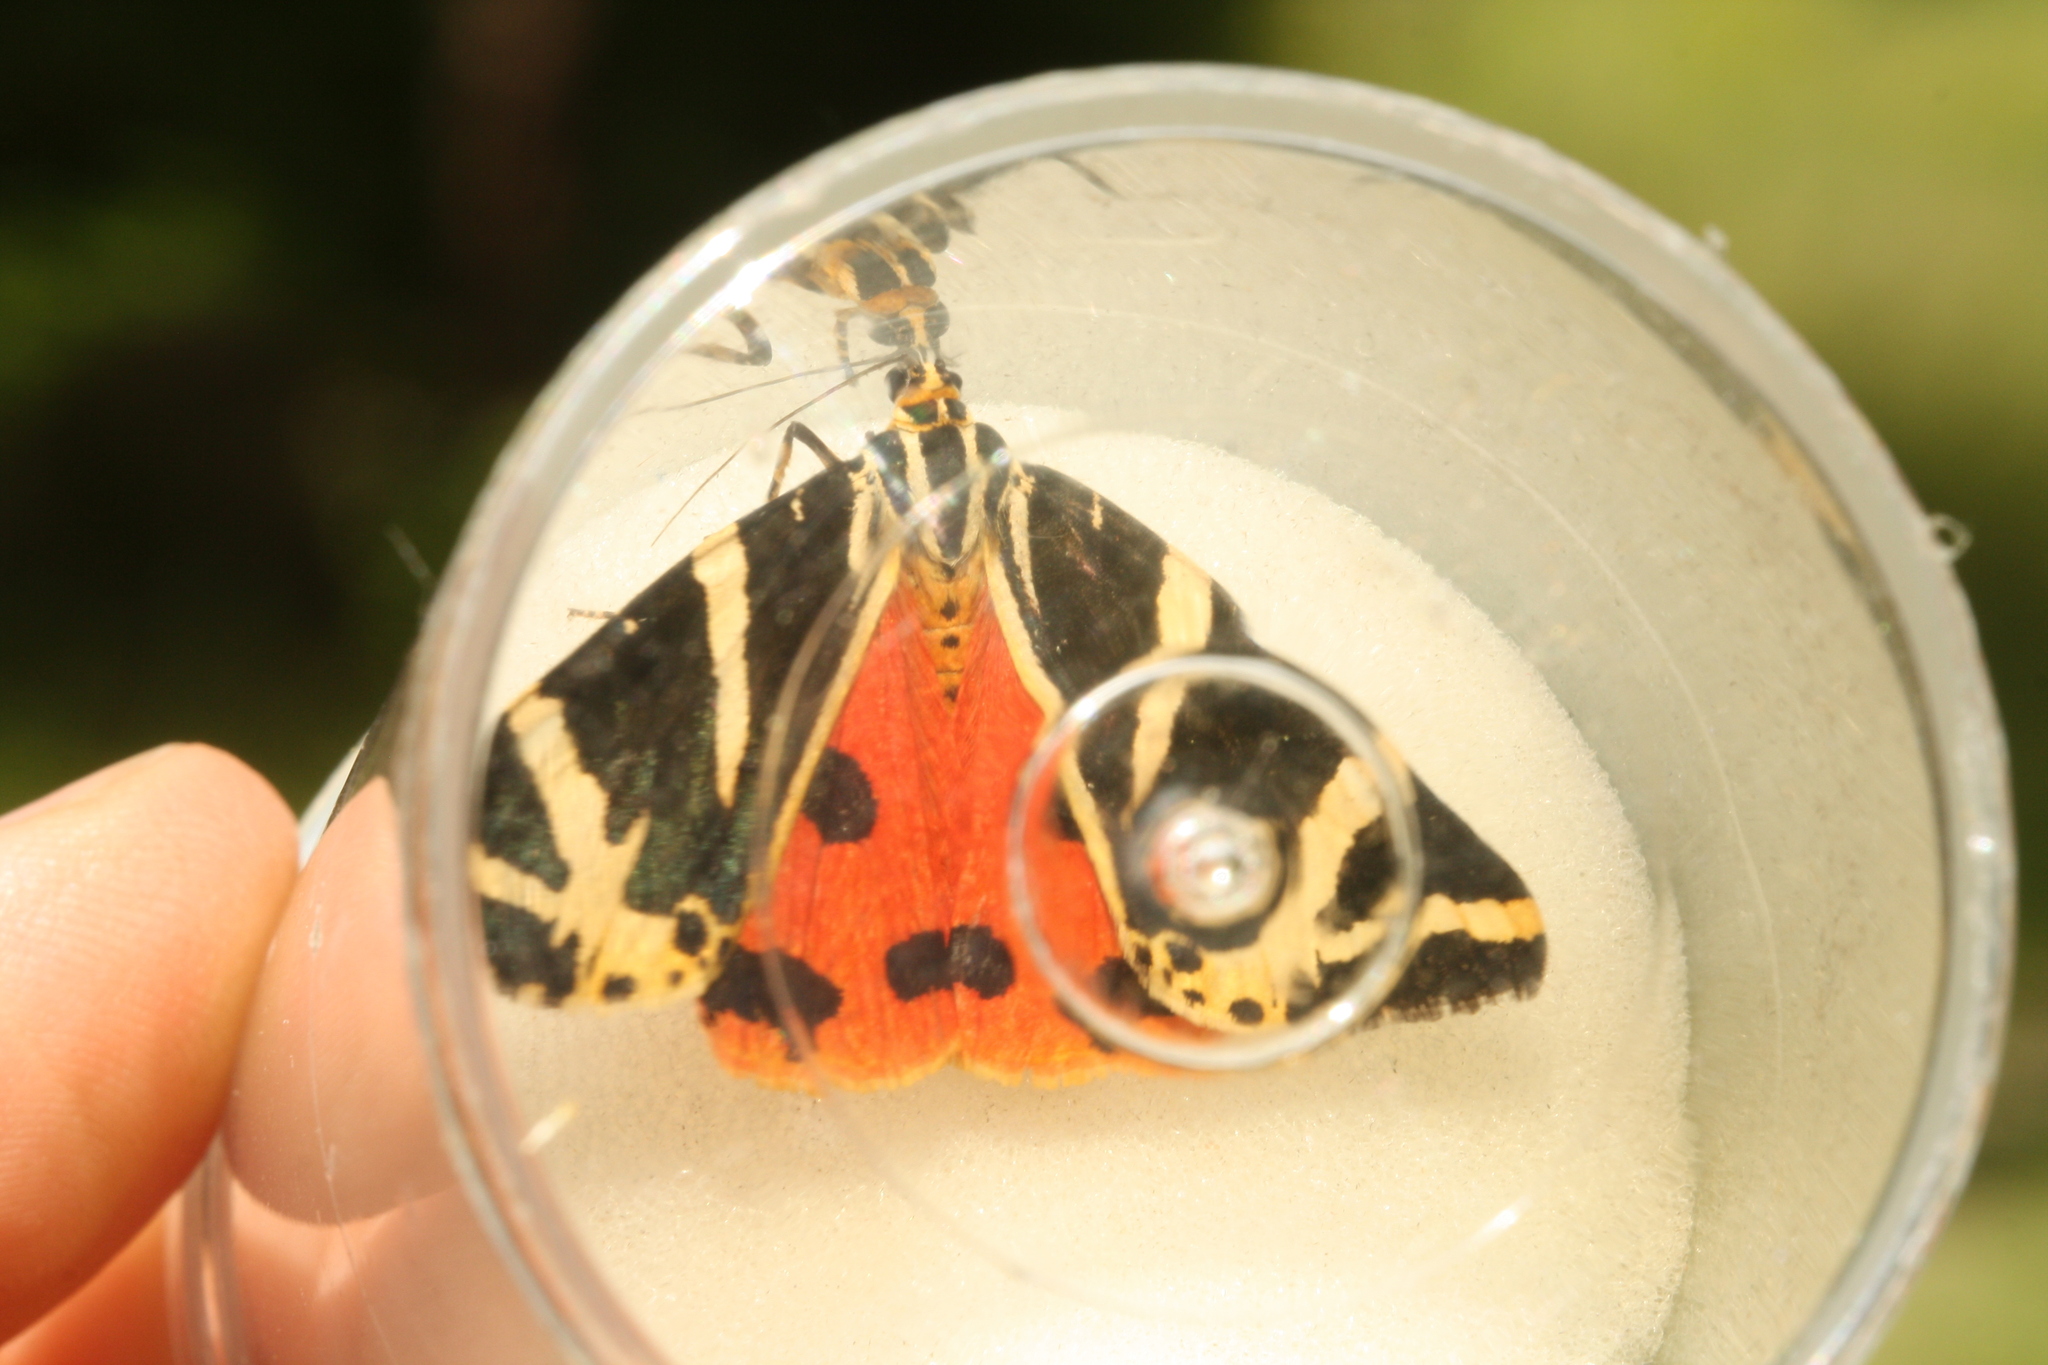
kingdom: Animalia
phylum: Arthropoda
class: Insecta
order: Lepidoptera
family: Erebidae
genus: Euplagia
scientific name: Euplagia quadripunctaria
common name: Jersey tiger
